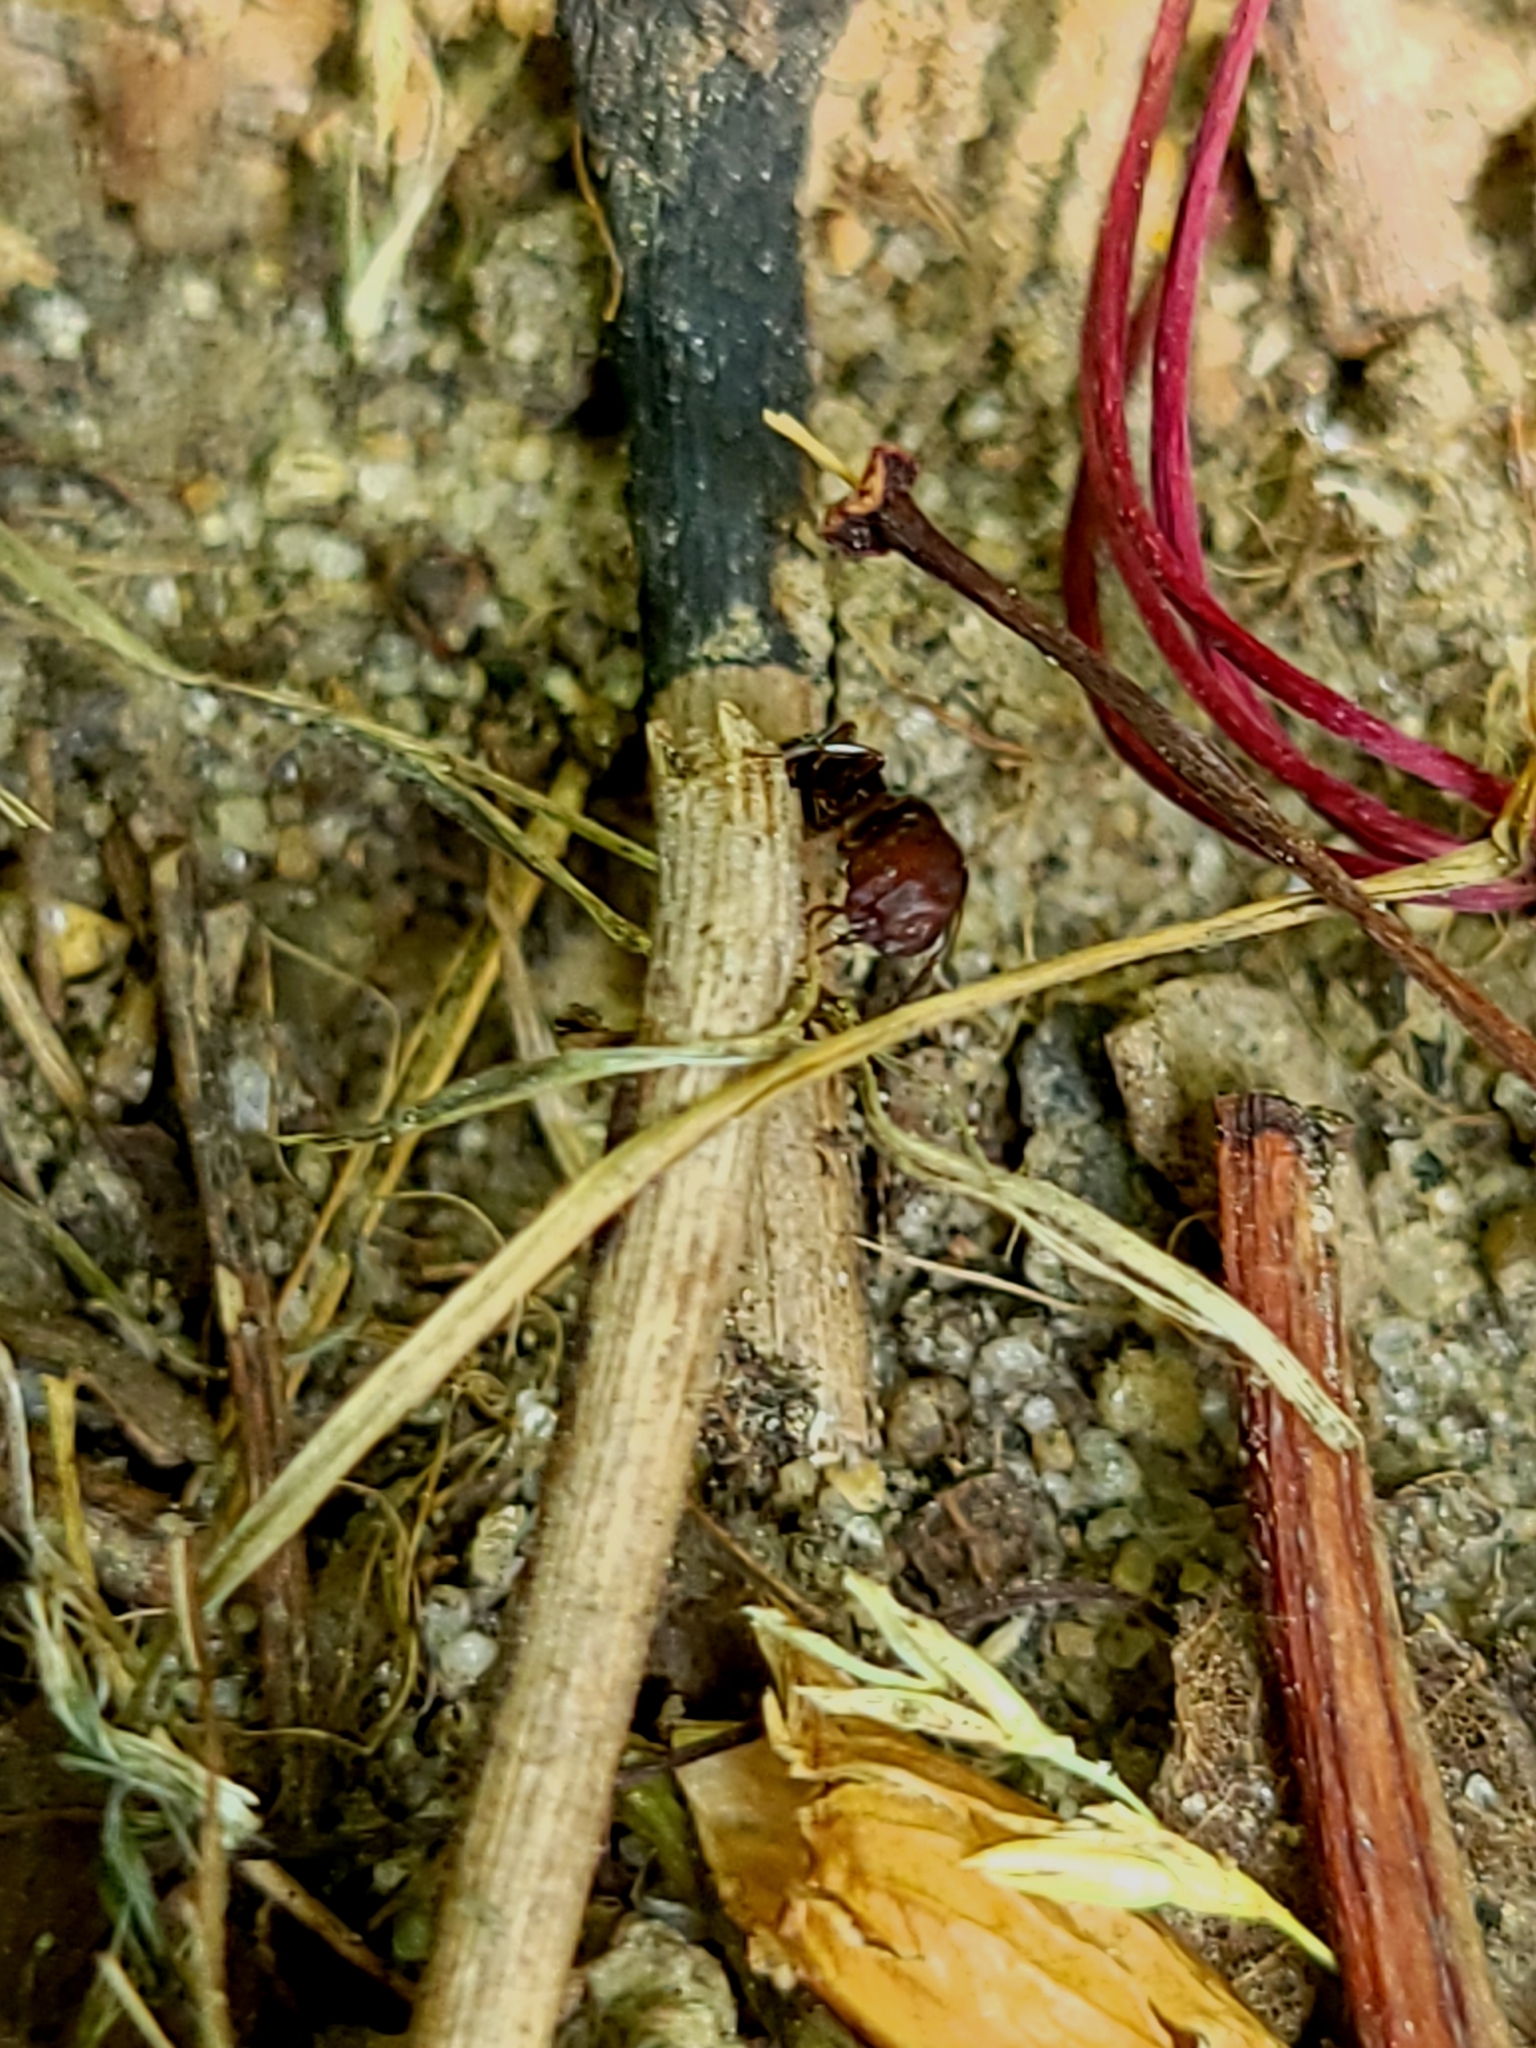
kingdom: Animalia
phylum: Arthropoda
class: Insecta
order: Hymenoptera
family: Formicidae
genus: Colobopsis
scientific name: Colobopsis
